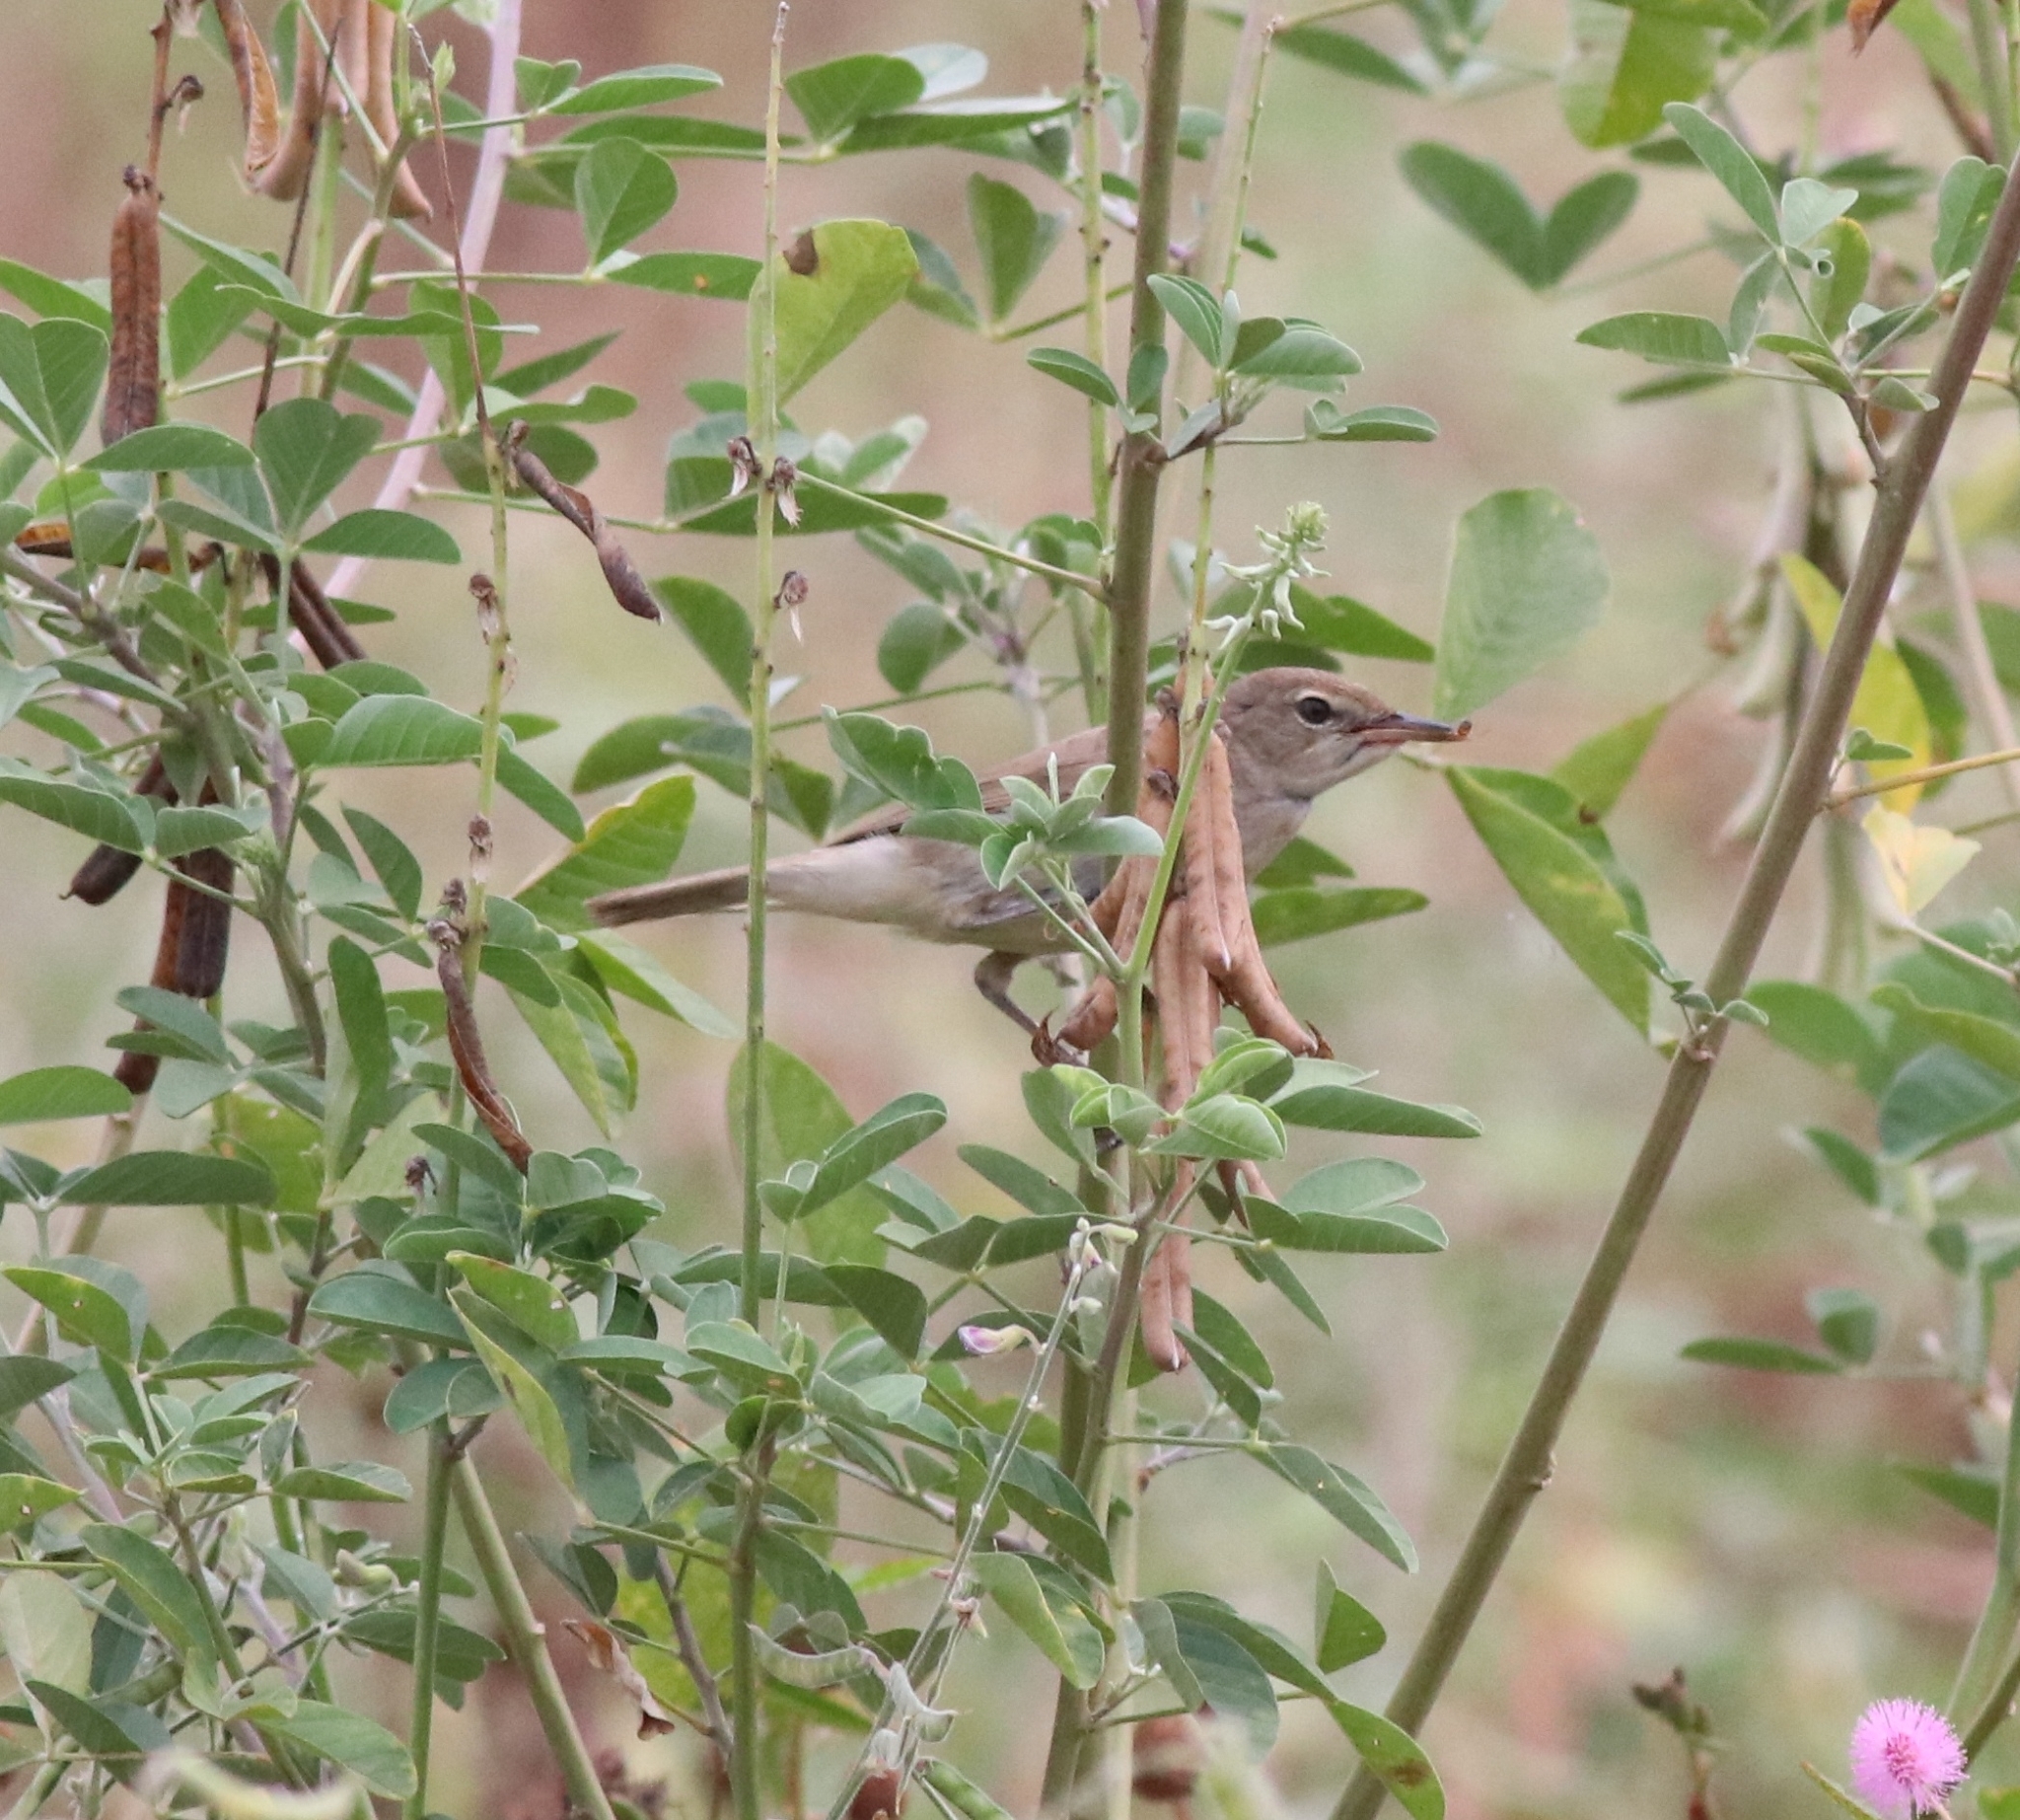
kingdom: Animalia
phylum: Chordata
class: Aves
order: Passeriformes
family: Acrocephalidae
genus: Acrocephalus
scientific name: Acrocephalus dumetorum
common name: Blyth's reed warbler
